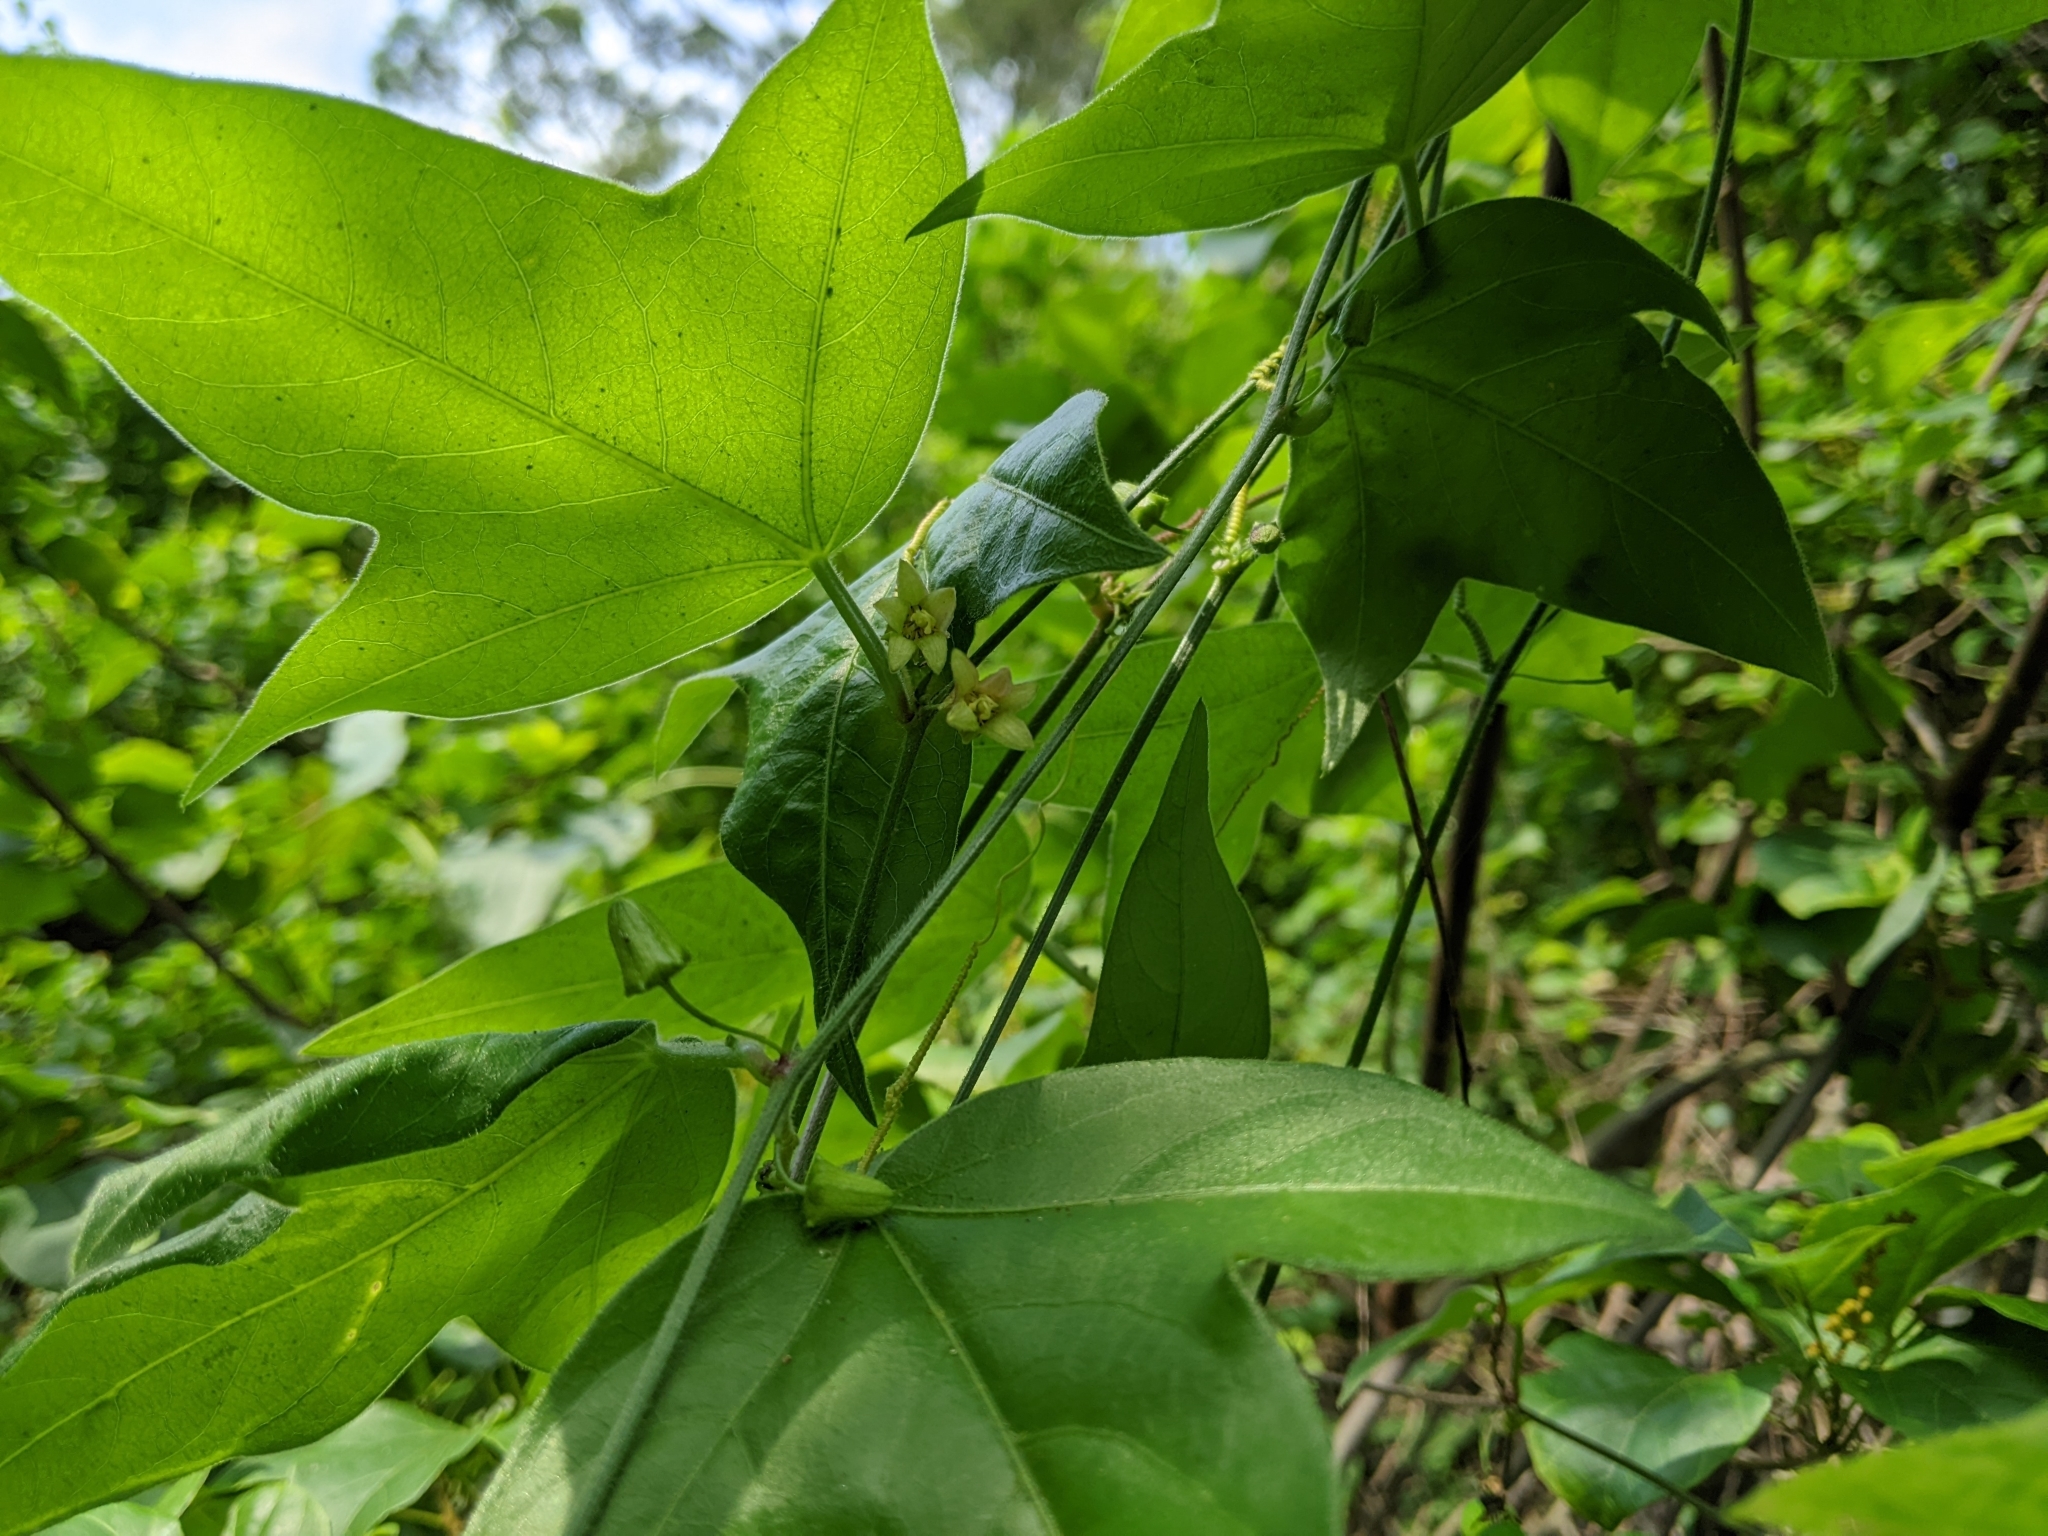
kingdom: Plantae
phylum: Tracheophyta
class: Magnoliopsida
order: Malpighiales
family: Passifloraceae
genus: Passiflora
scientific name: Passiflora suberosa
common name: Wild passionfruit
